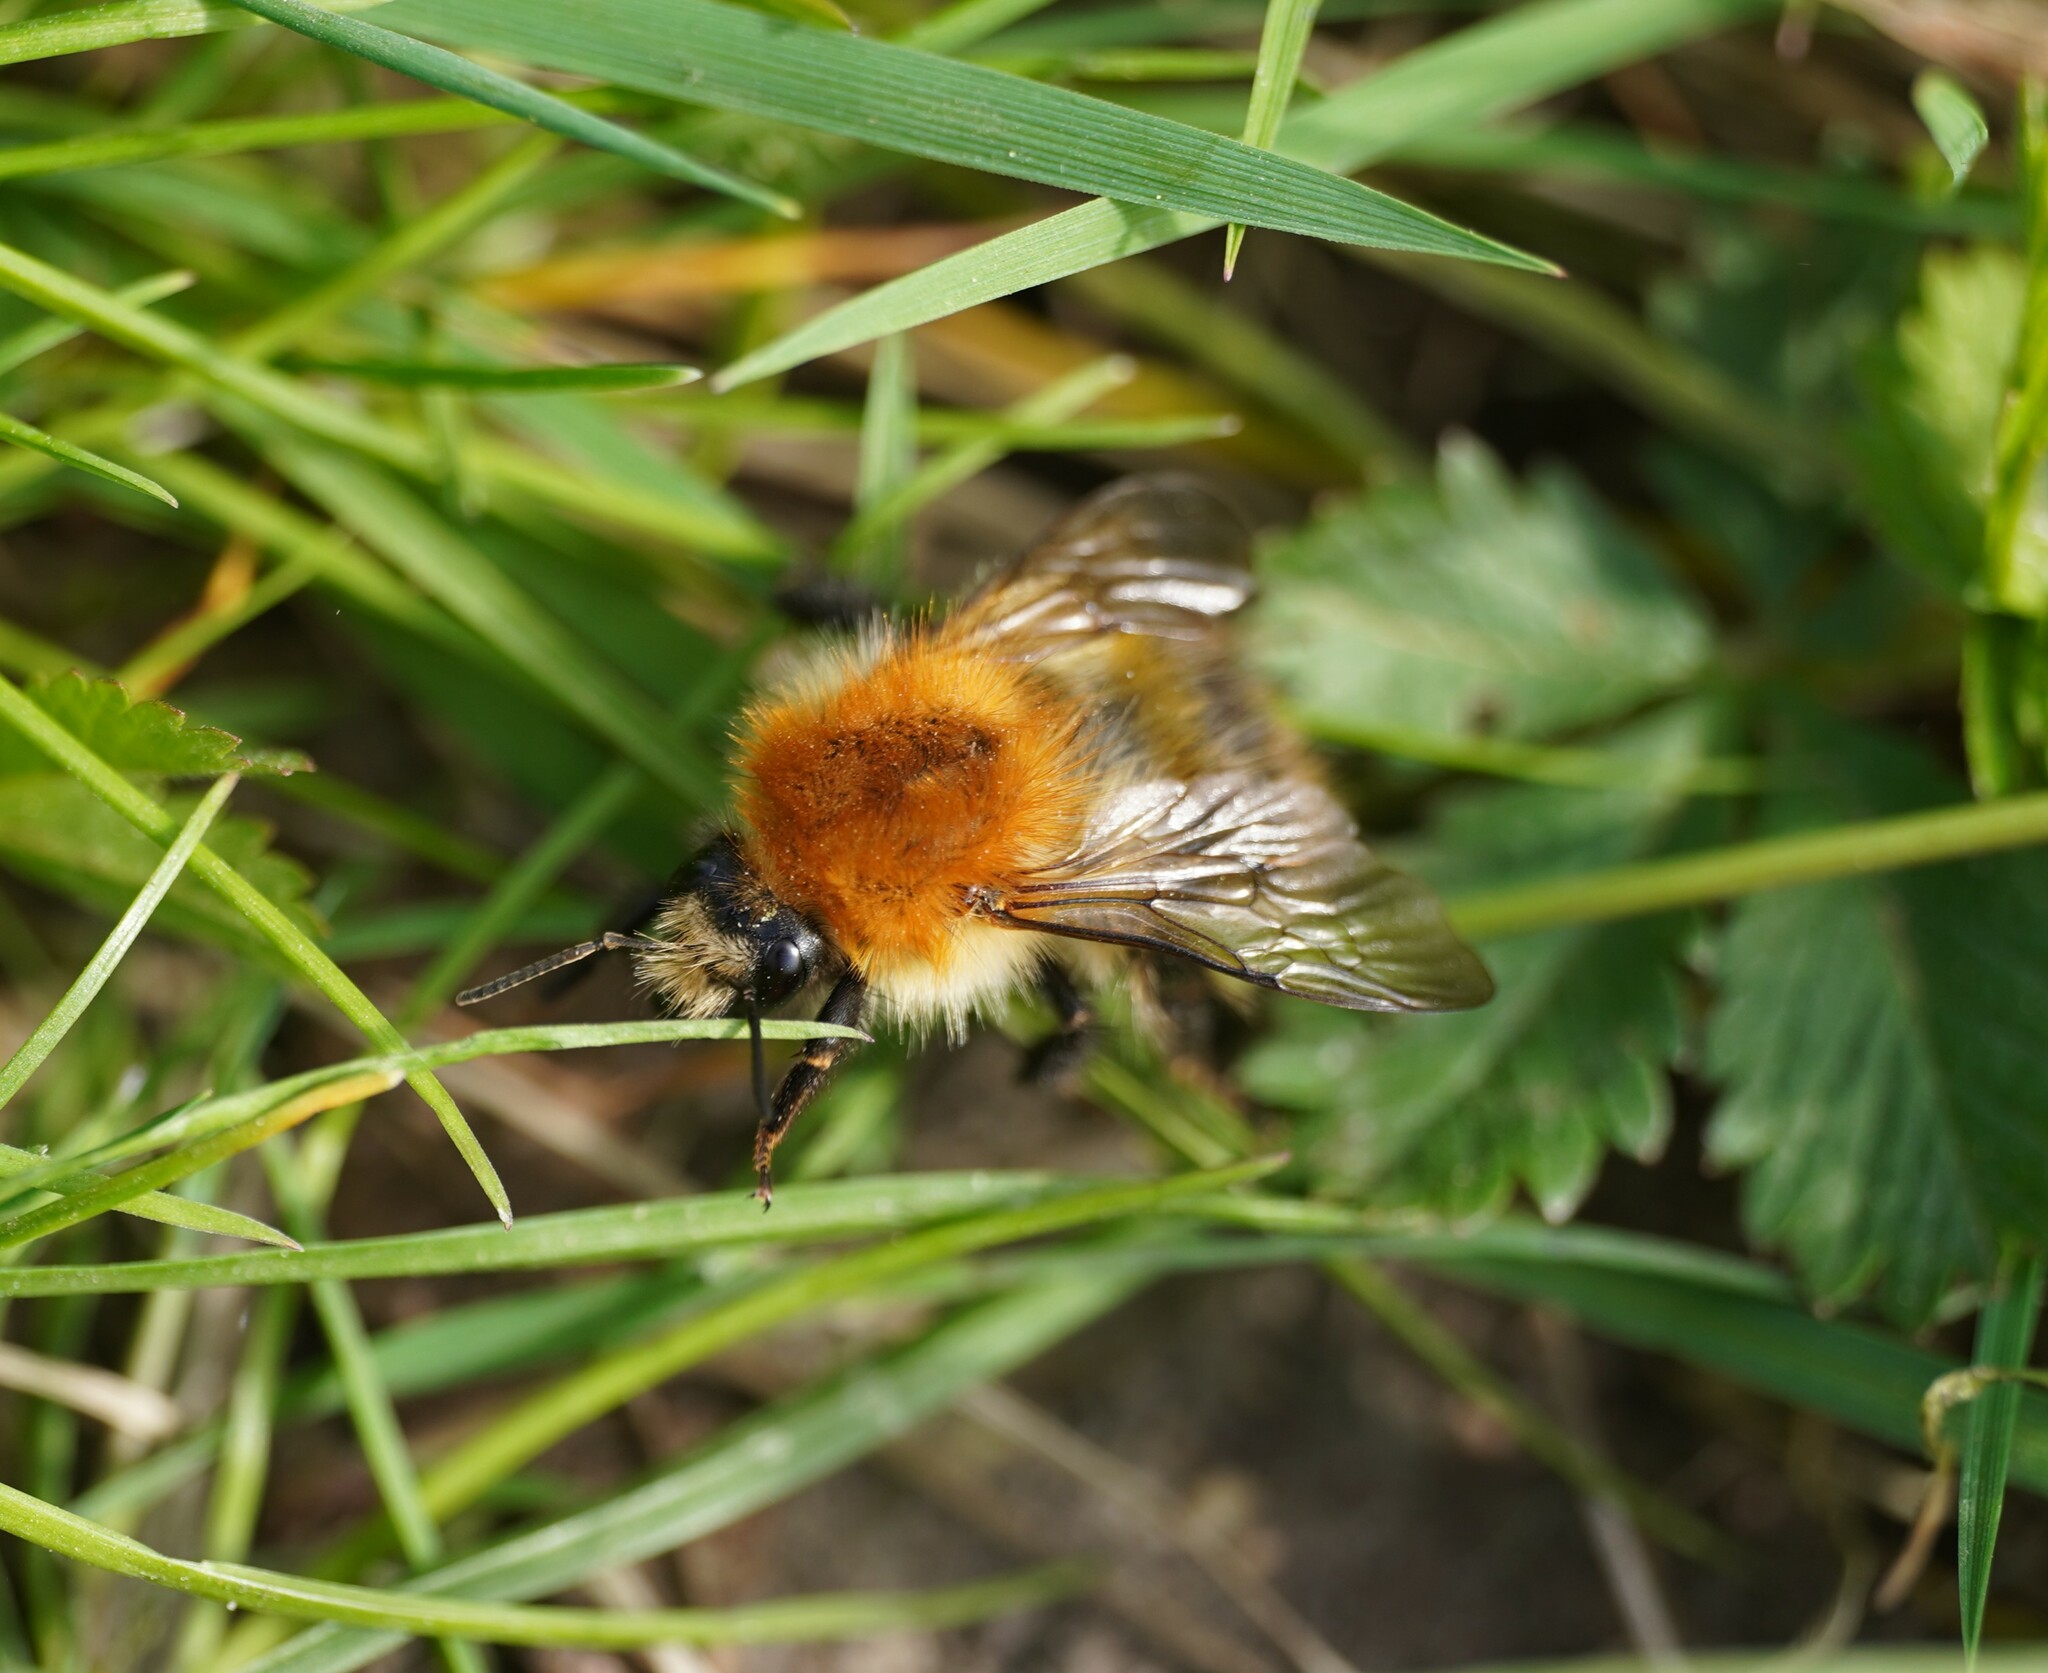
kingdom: Animalia
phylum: Arthropoda
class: Insecta
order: Hymenoptera
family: Apidae
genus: Bombus
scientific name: Bombus pascuorum
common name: Common carder bee
